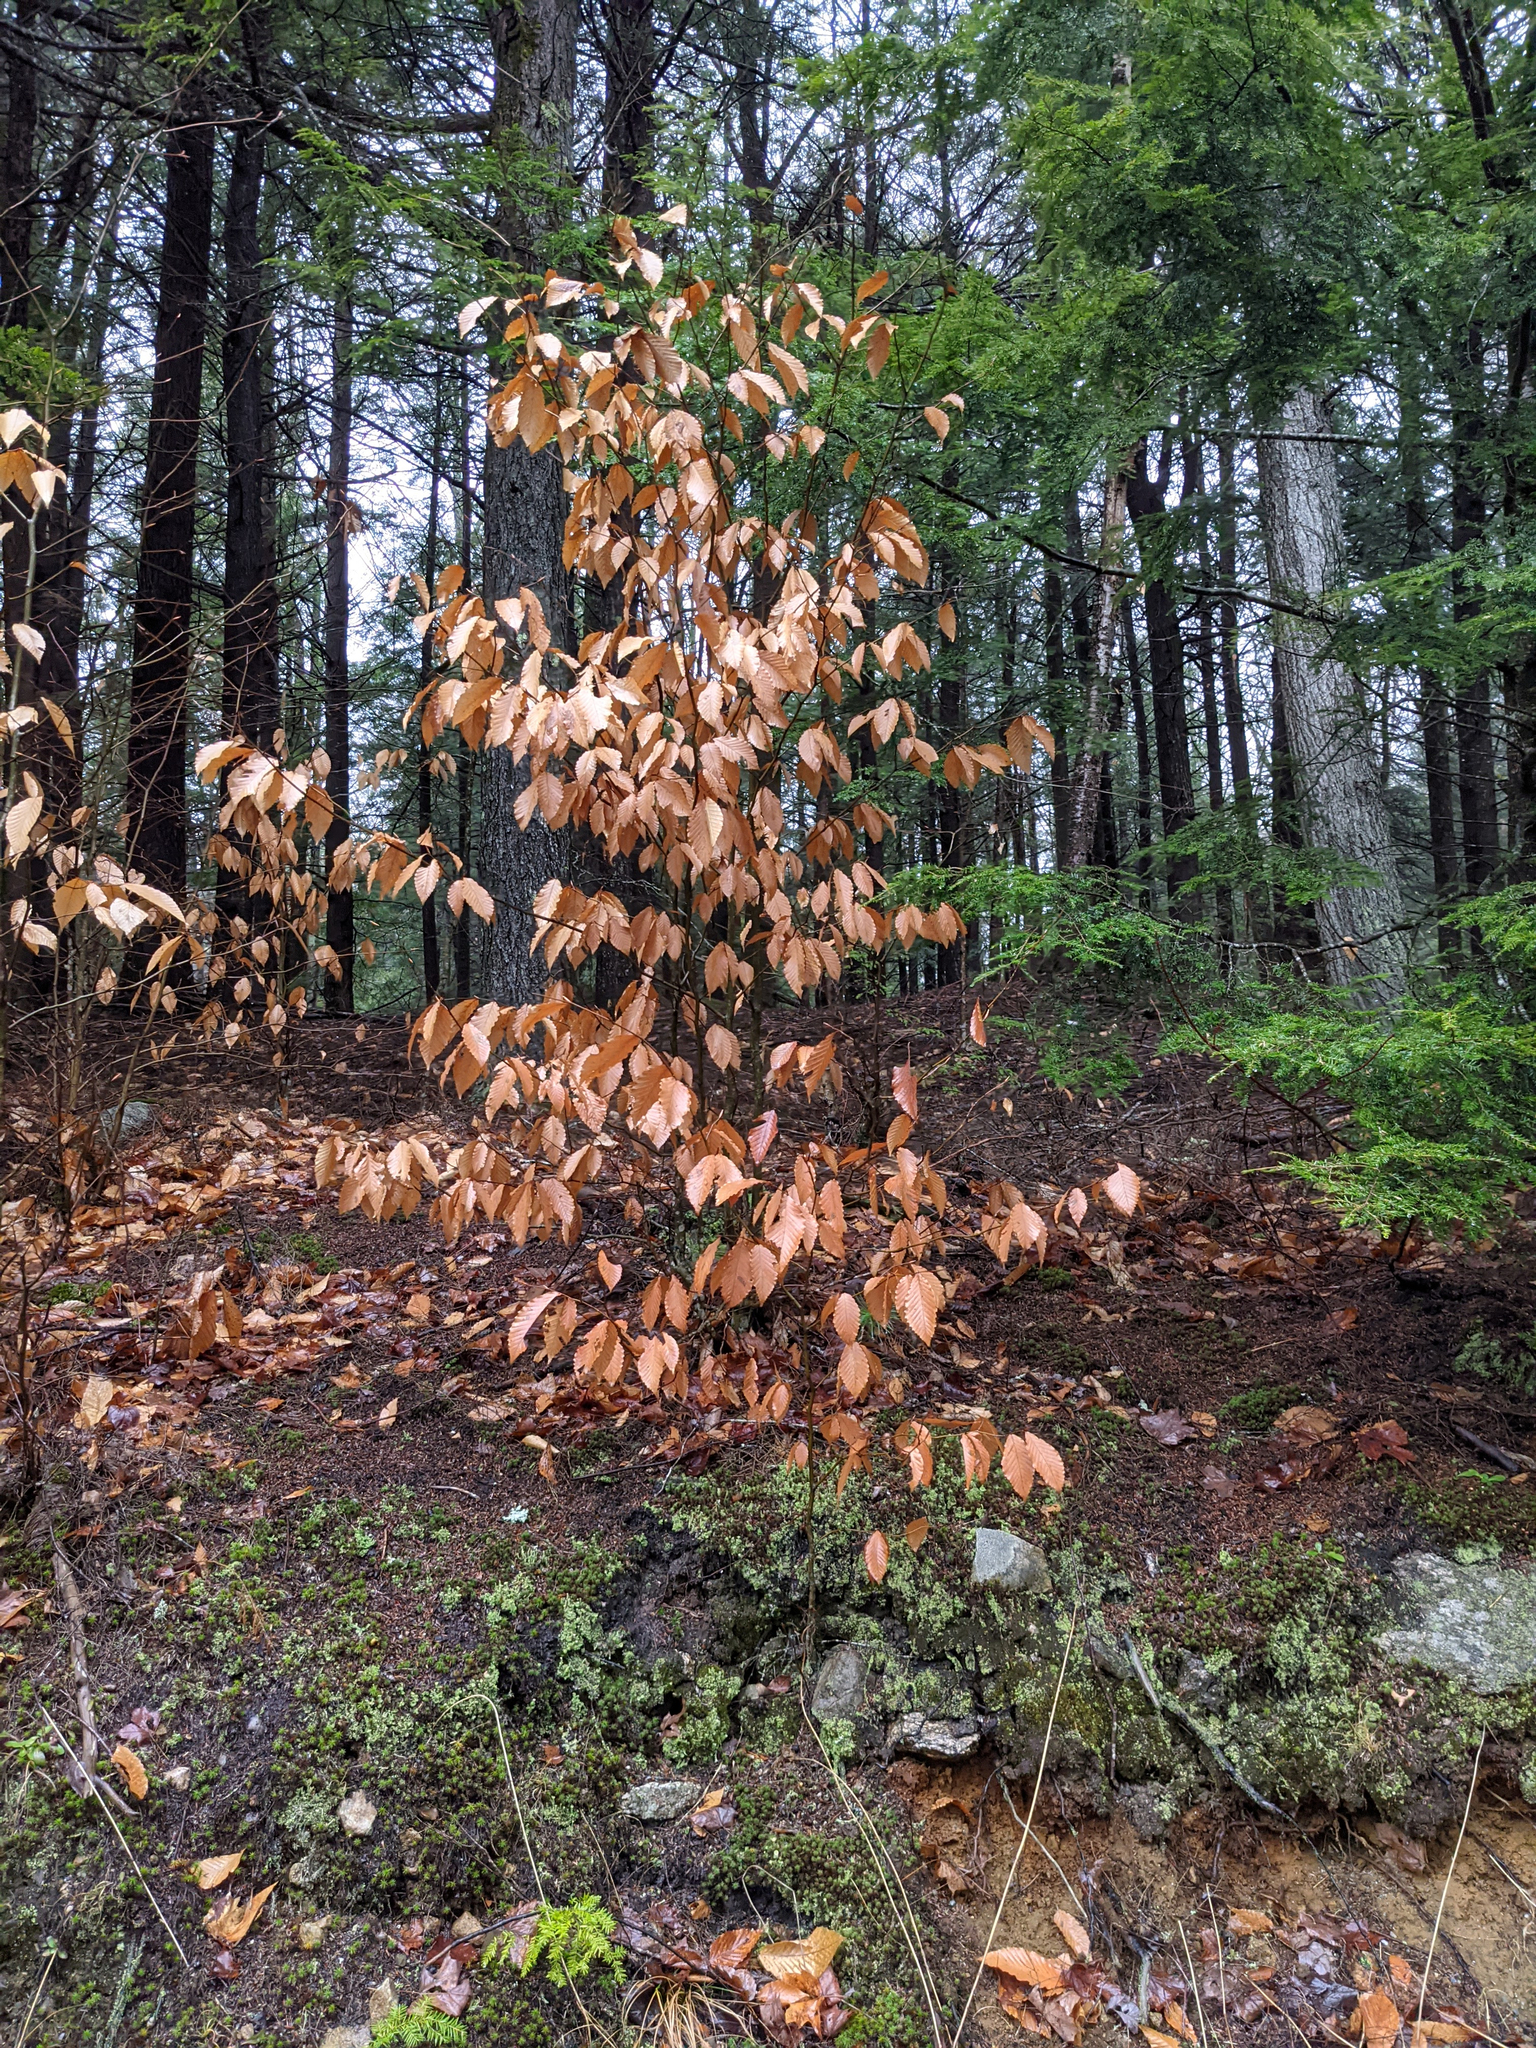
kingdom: Plantae
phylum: Tracheophyta
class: Magnoliopsida
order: Fagales
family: Fagaceae
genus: Fagus
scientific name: Fagus grandifolia
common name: American beech
